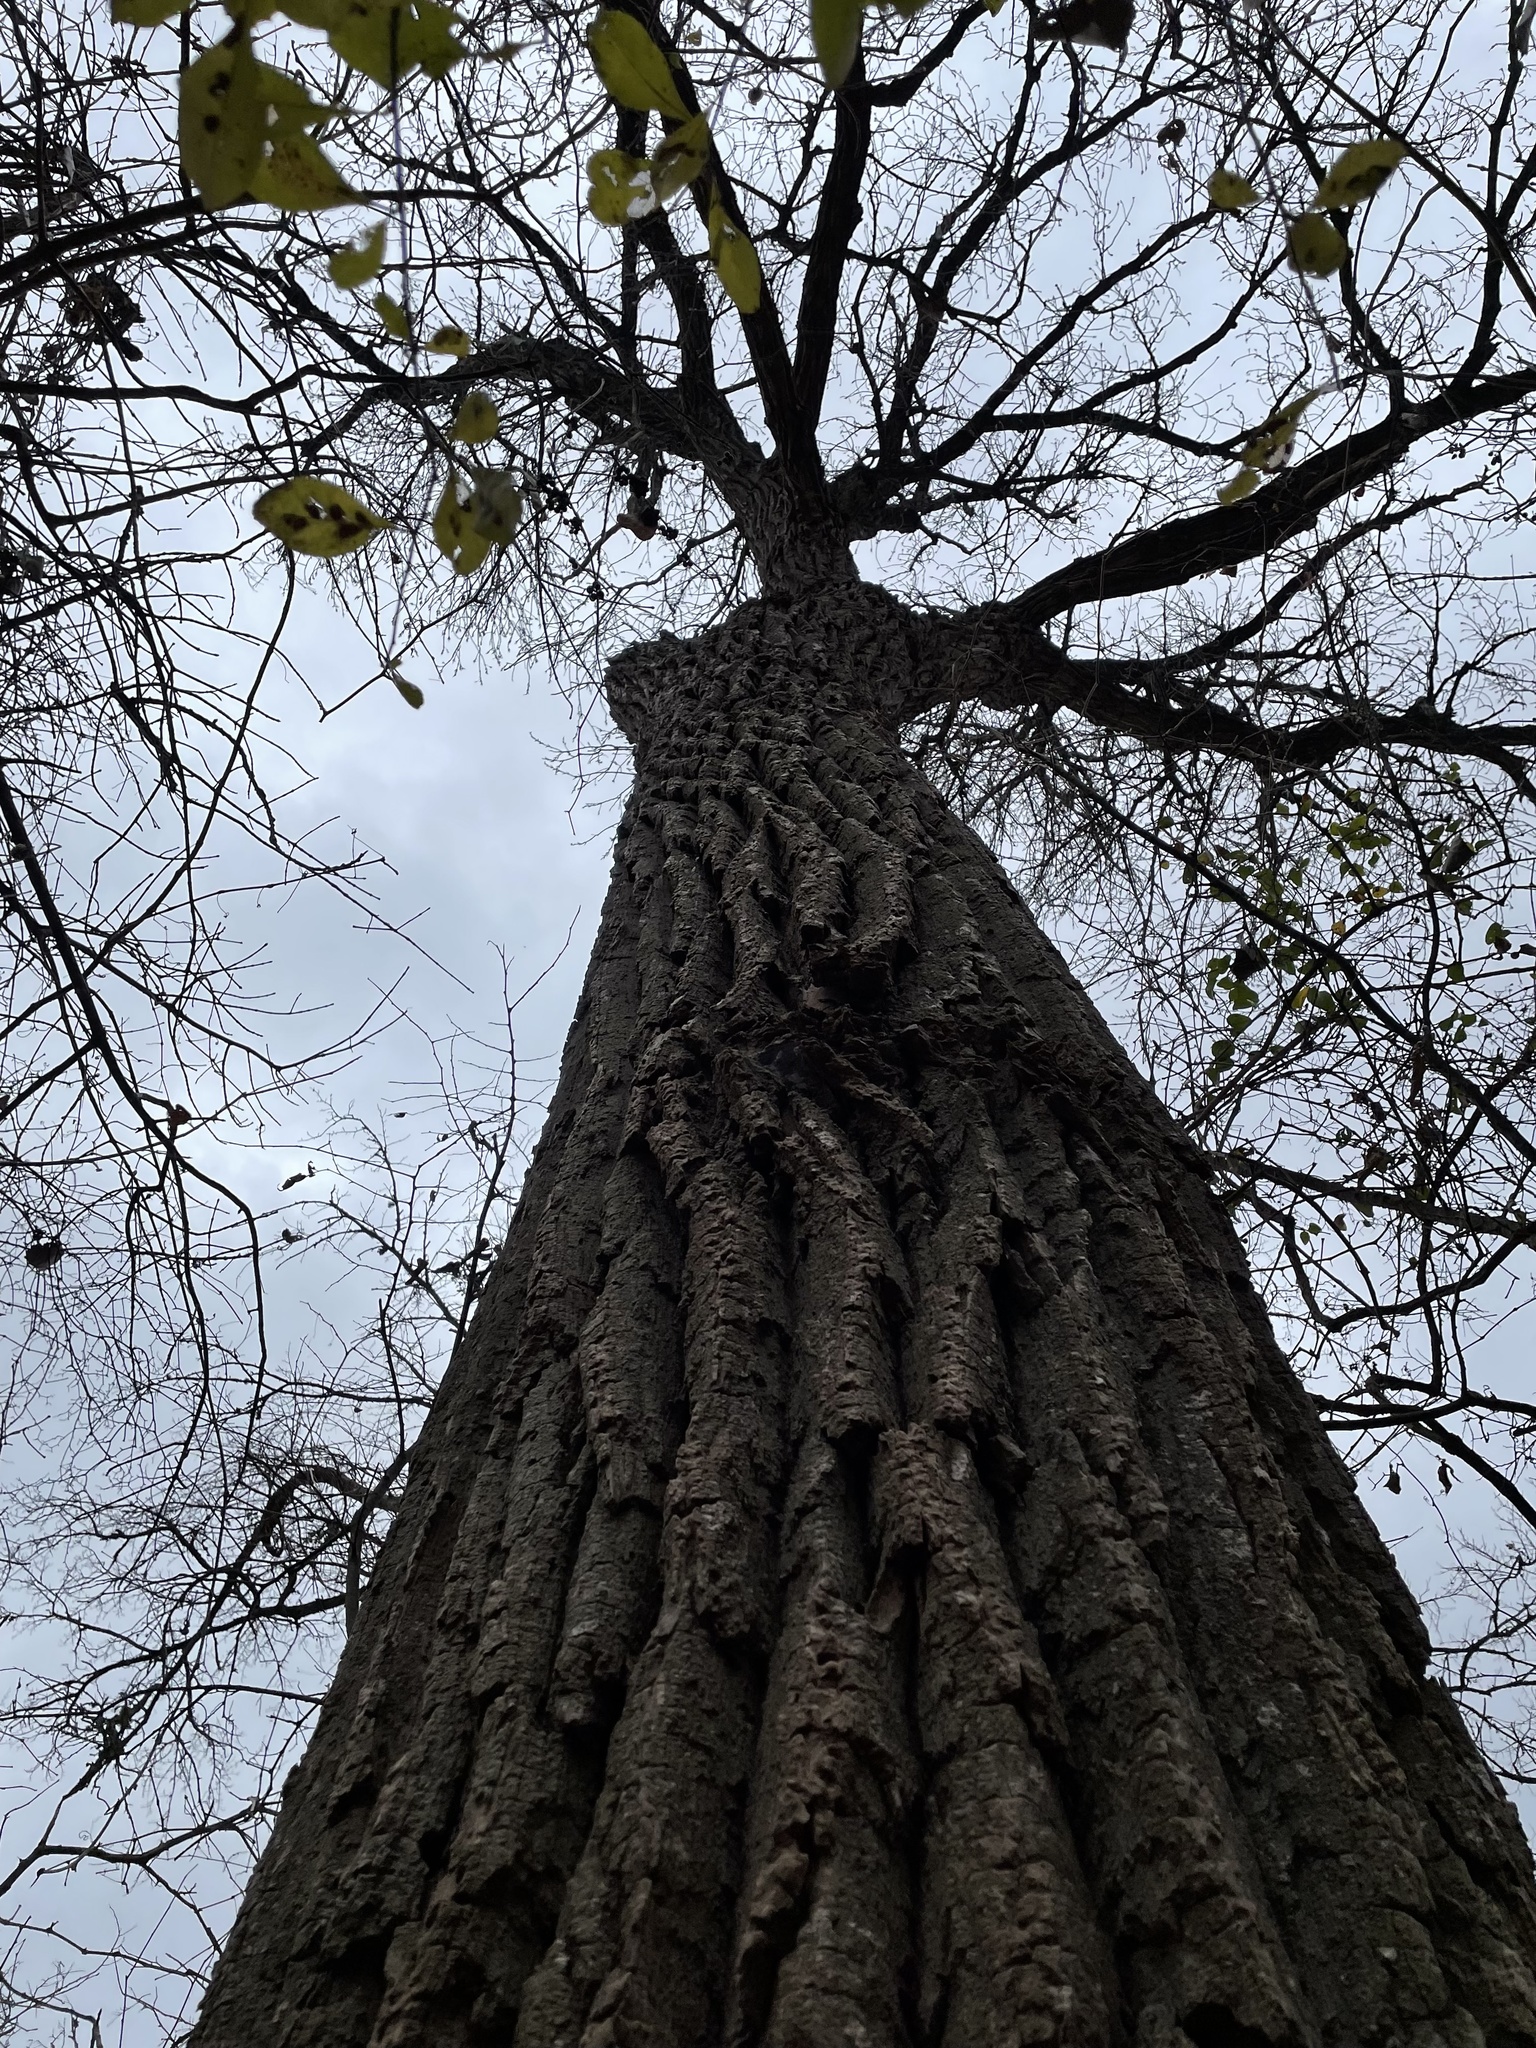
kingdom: Plantae
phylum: Tracheophyta
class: Magnoliopsida
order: Malpighiales
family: Salicaceae
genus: Populus
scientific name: Populus deltoides
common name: Eastern cottonwood
